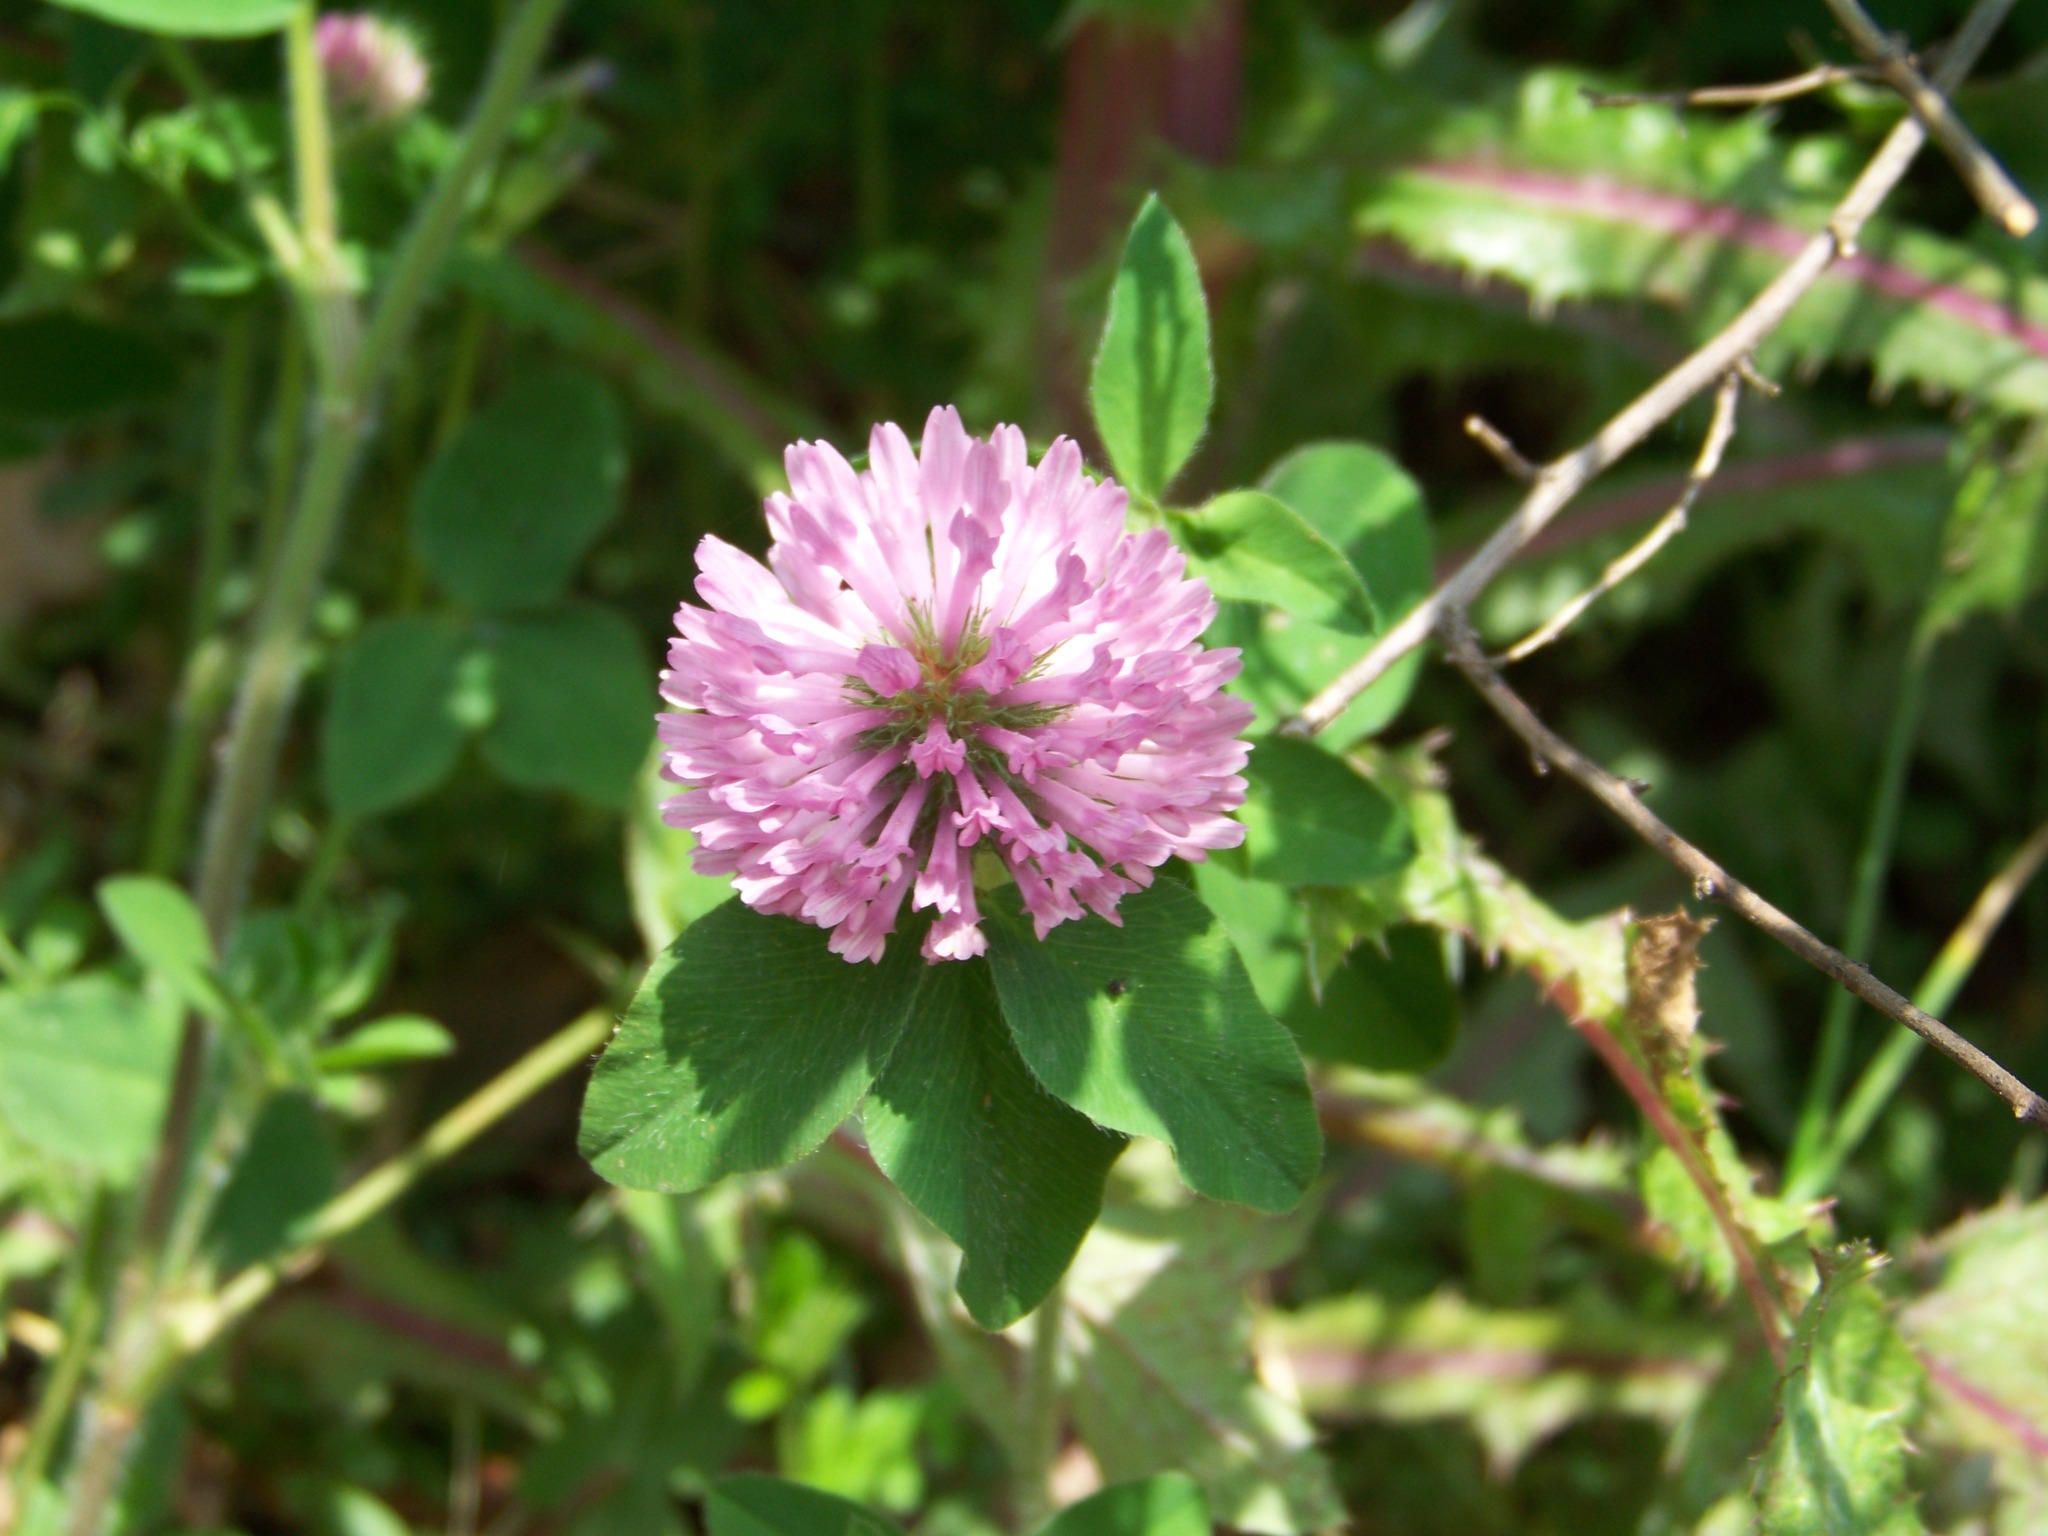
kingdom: Plantae
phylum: Tracheophyta
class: Magnoliopsida
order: Fabales
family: Fabaceae
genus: Trifolium
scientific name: Trifolium pratense
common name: Red clover
